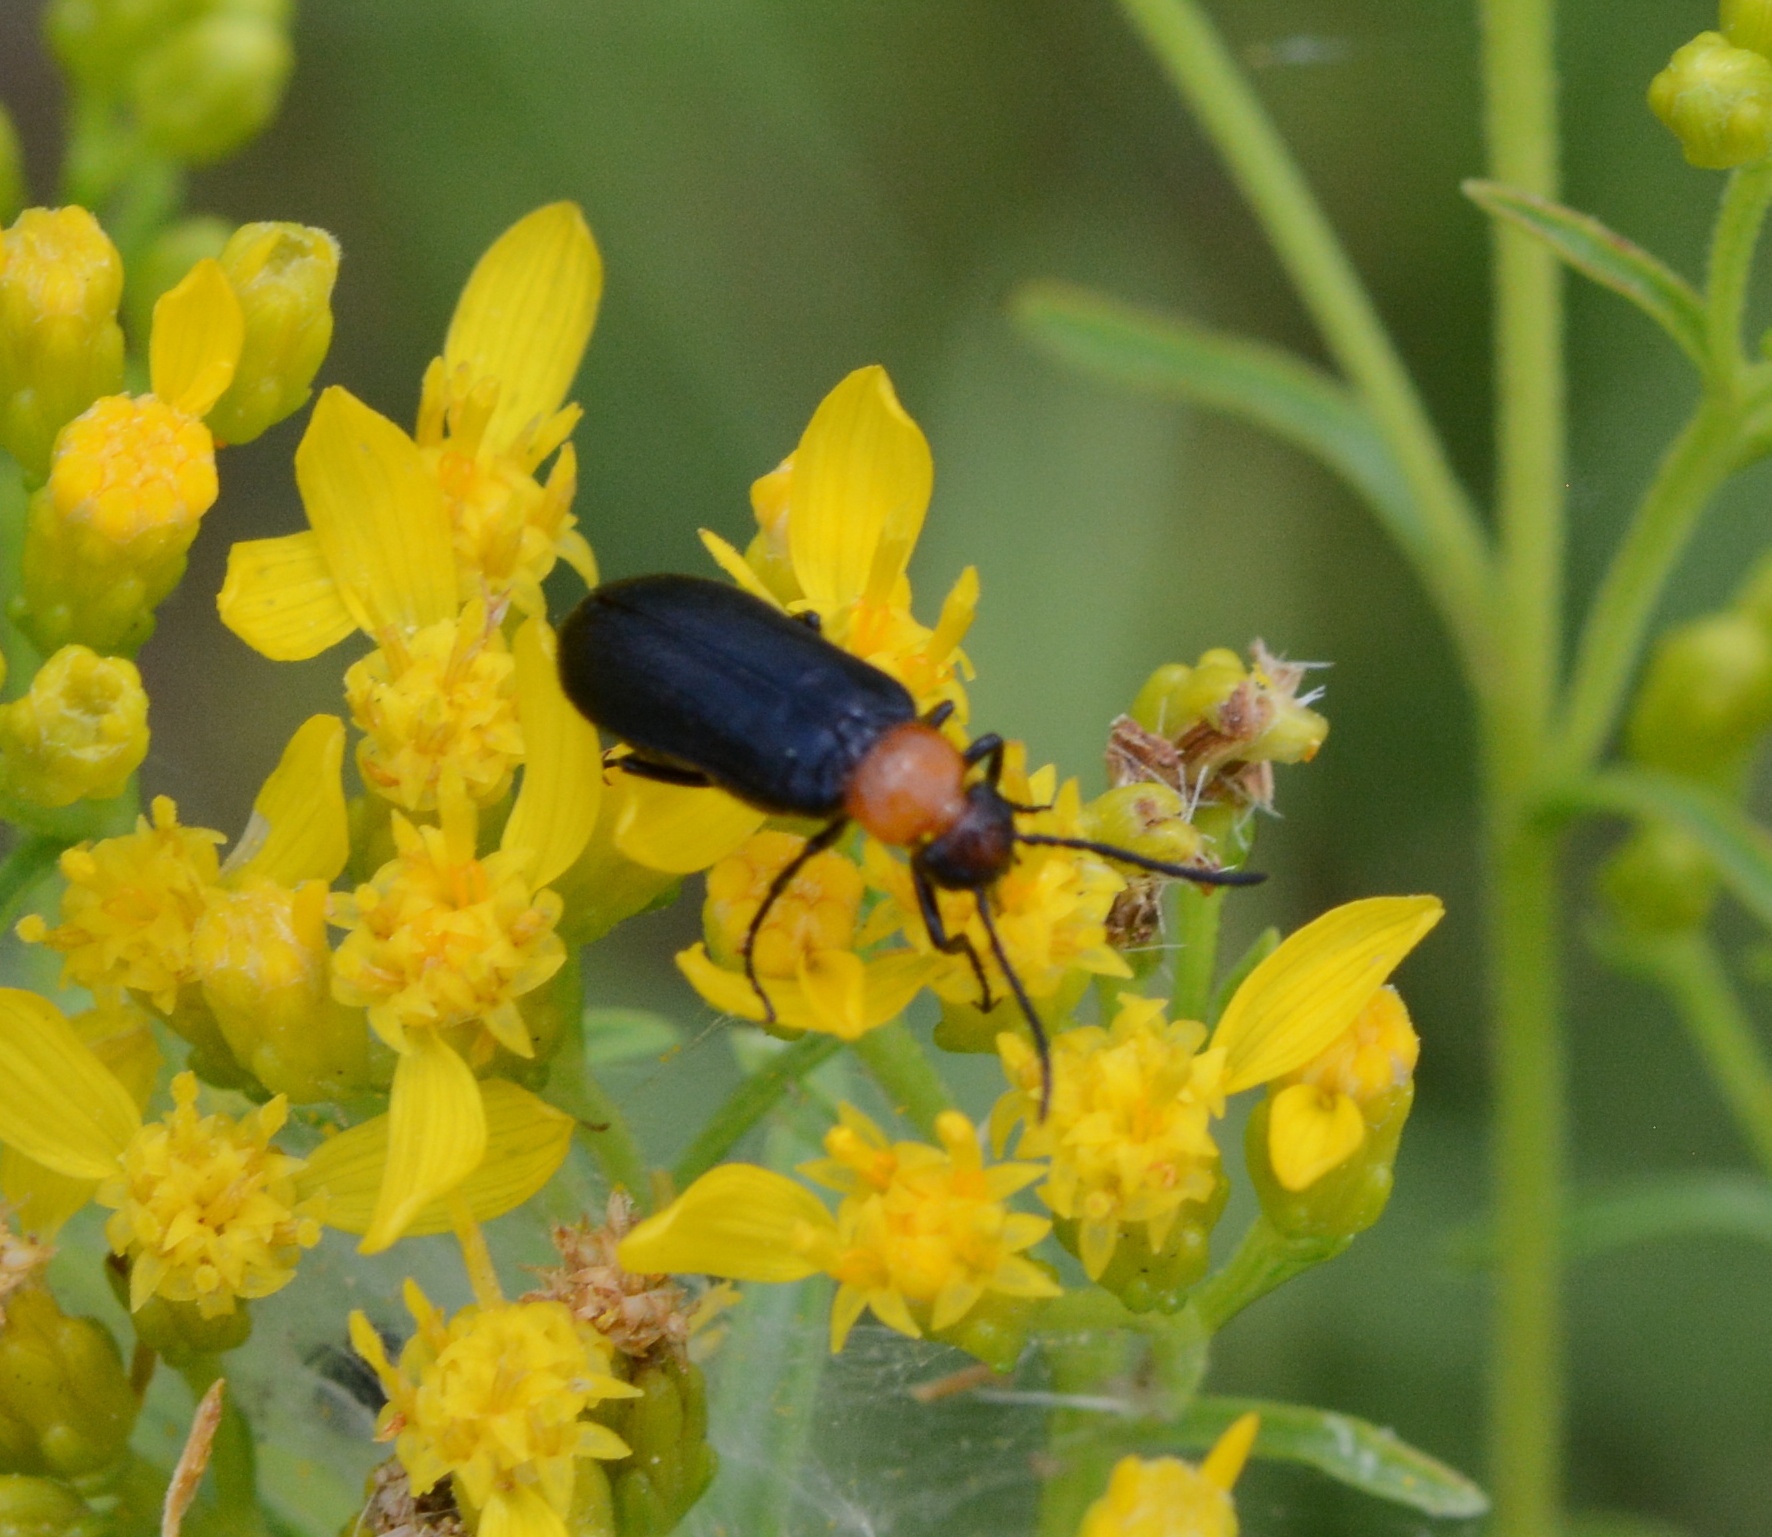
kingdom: Animalia
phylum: Arthropoda
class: Insecta
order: Coleoptera
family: Meloidae
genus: Nemognatha
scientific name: Nemognatha nemorensis
